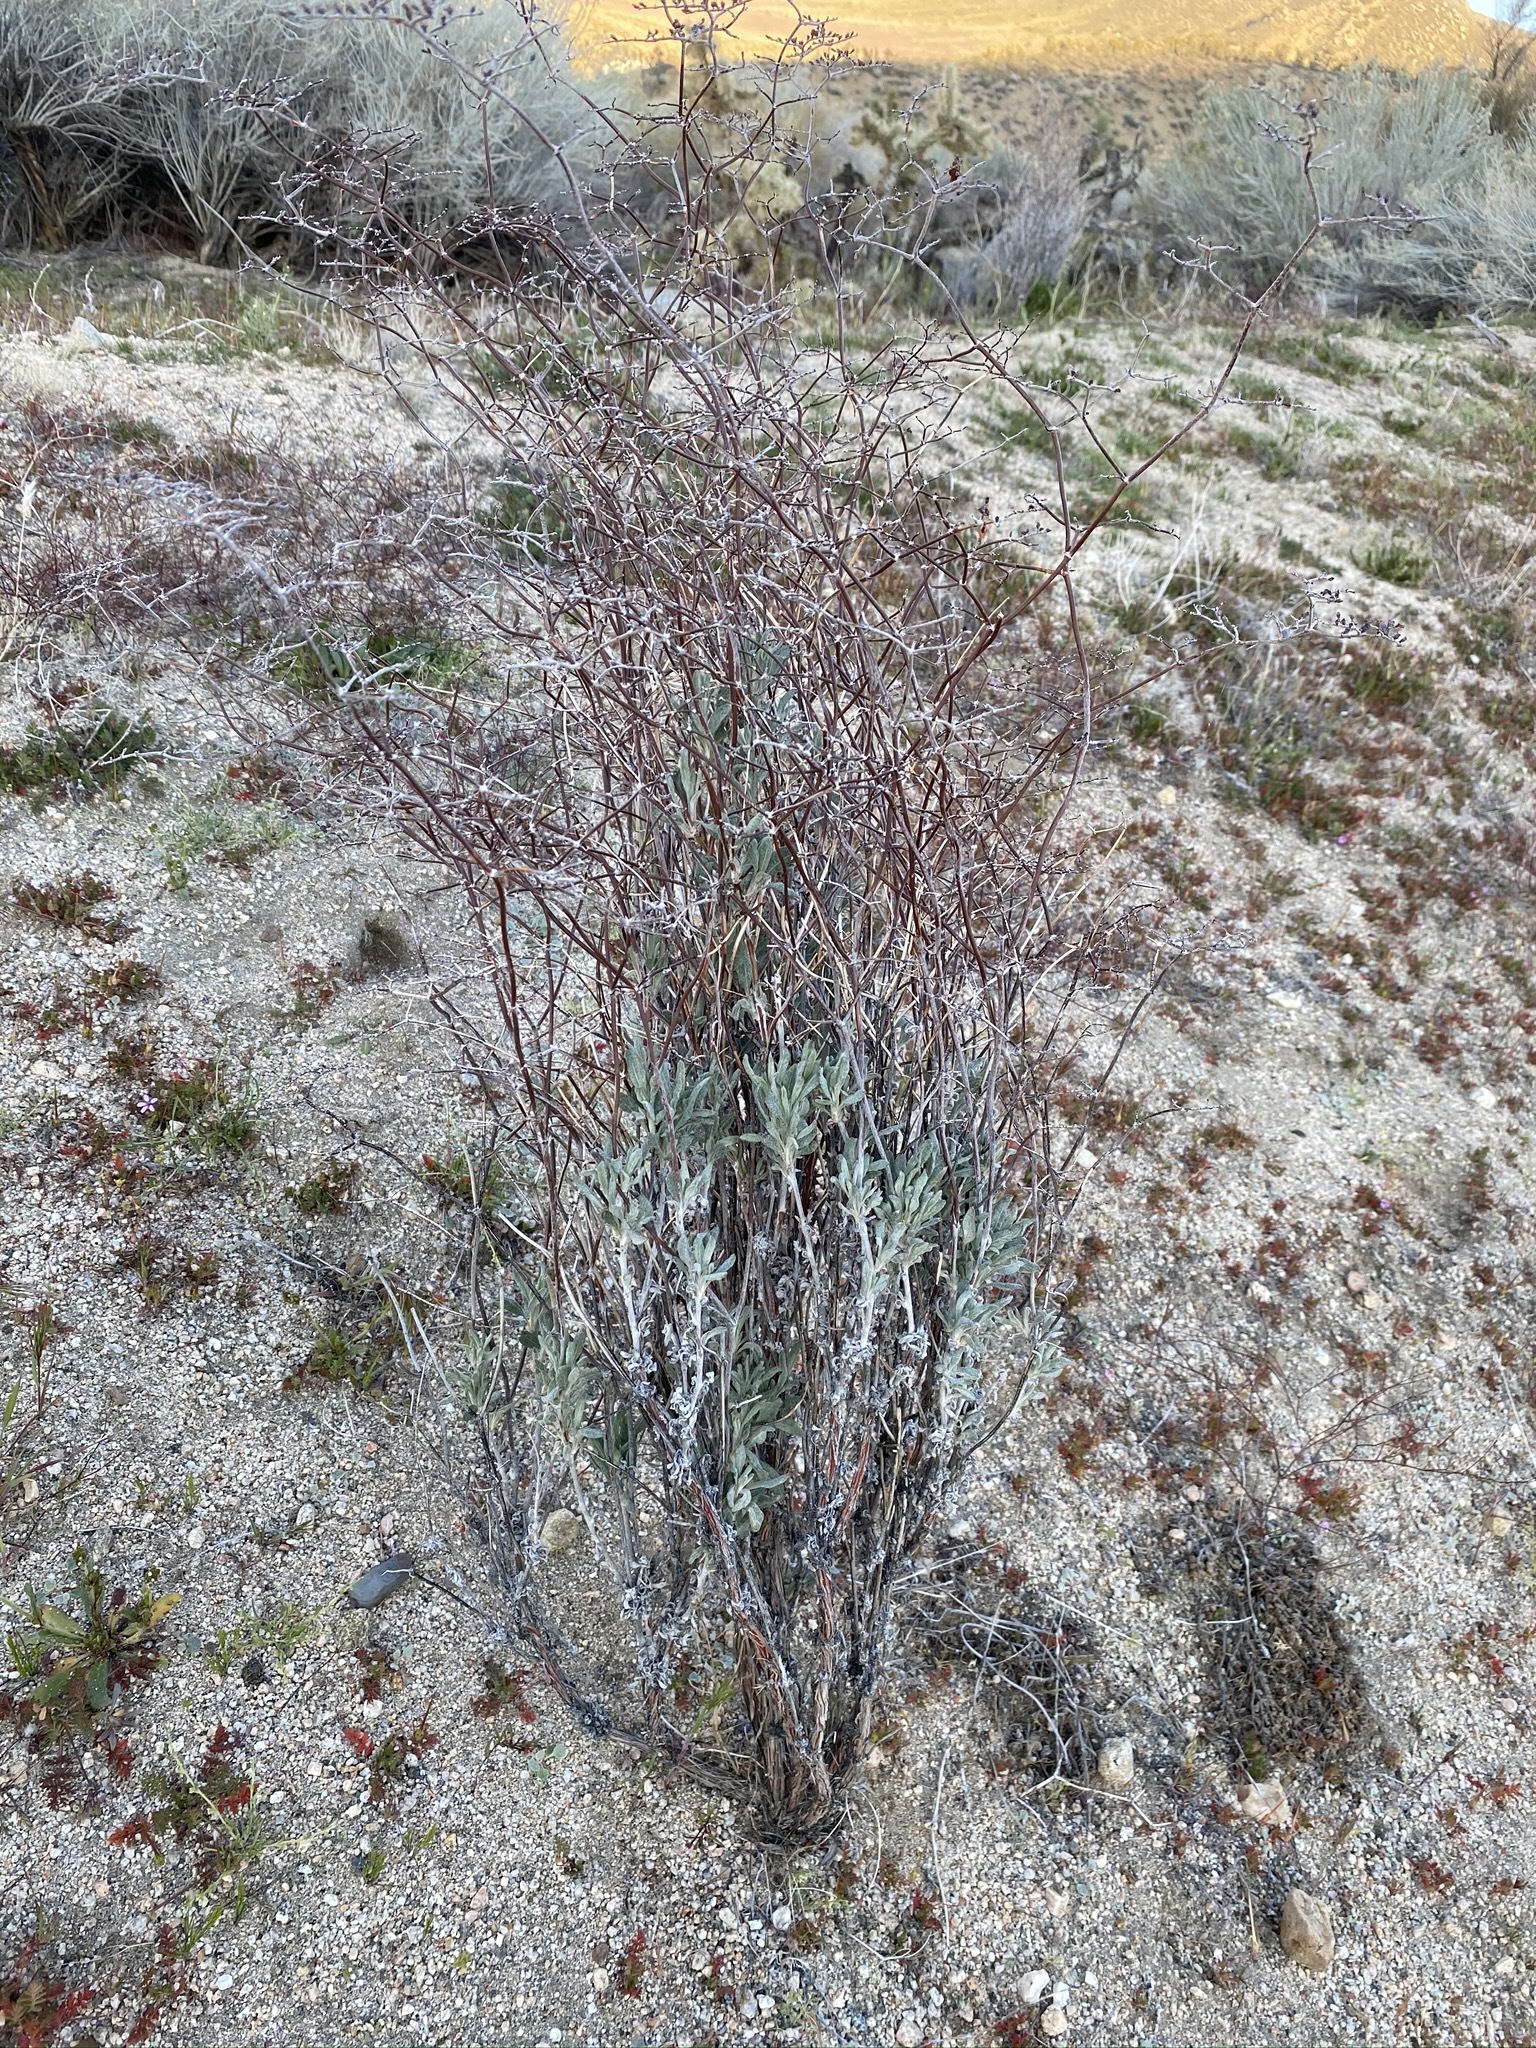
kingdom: Plantae
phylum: Tracheophyta
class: Magnoliopsida
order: Caryophyllales
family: Polygonaceae
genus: Eriogonum
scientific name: Eriogonum plumatella
